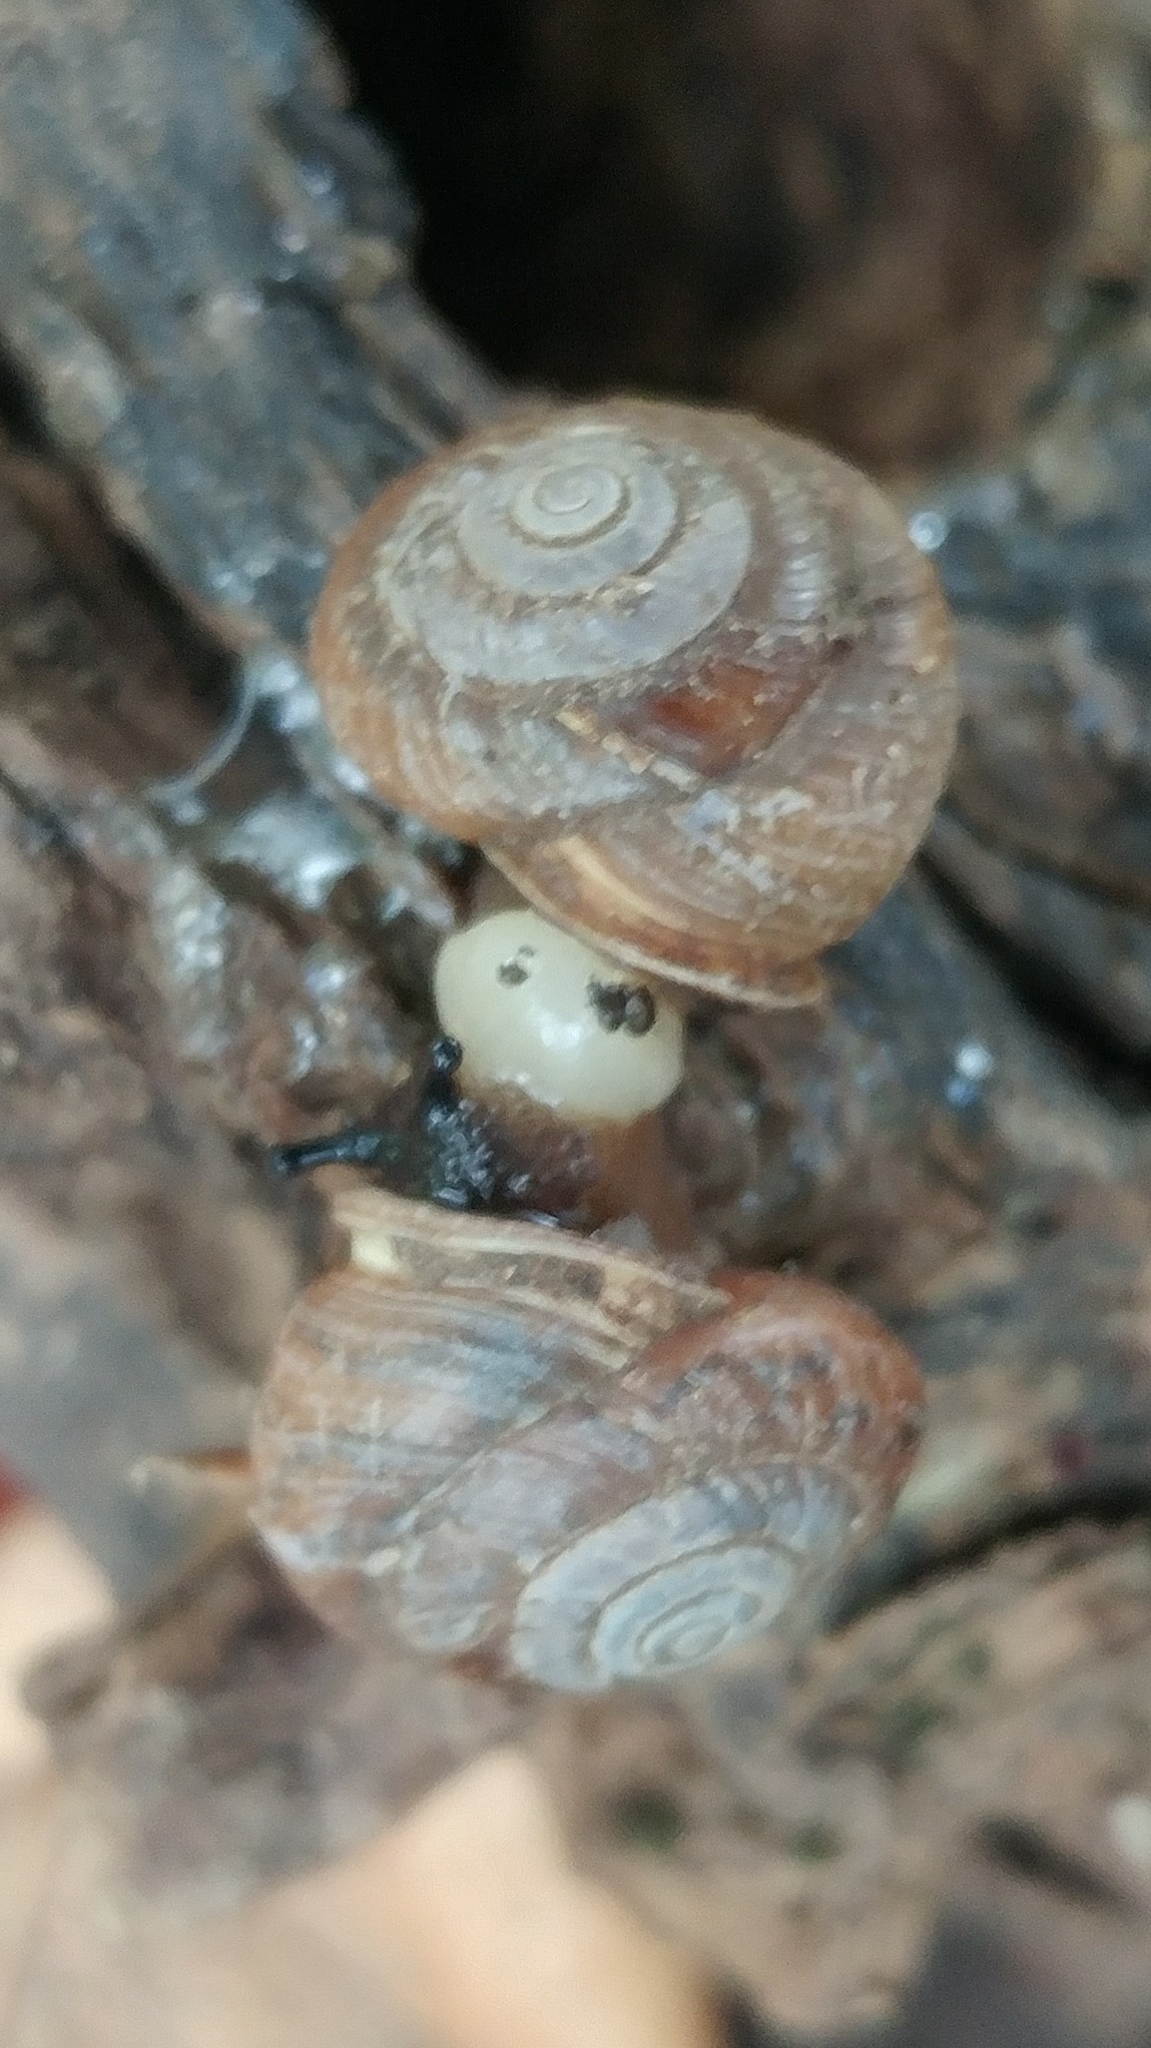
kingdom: Animalia
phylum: Mollusca
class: Gastropoda
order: Stylommatophora
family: Polygyridae
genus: Ashmunella
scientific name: Ashmunella rhyssa
